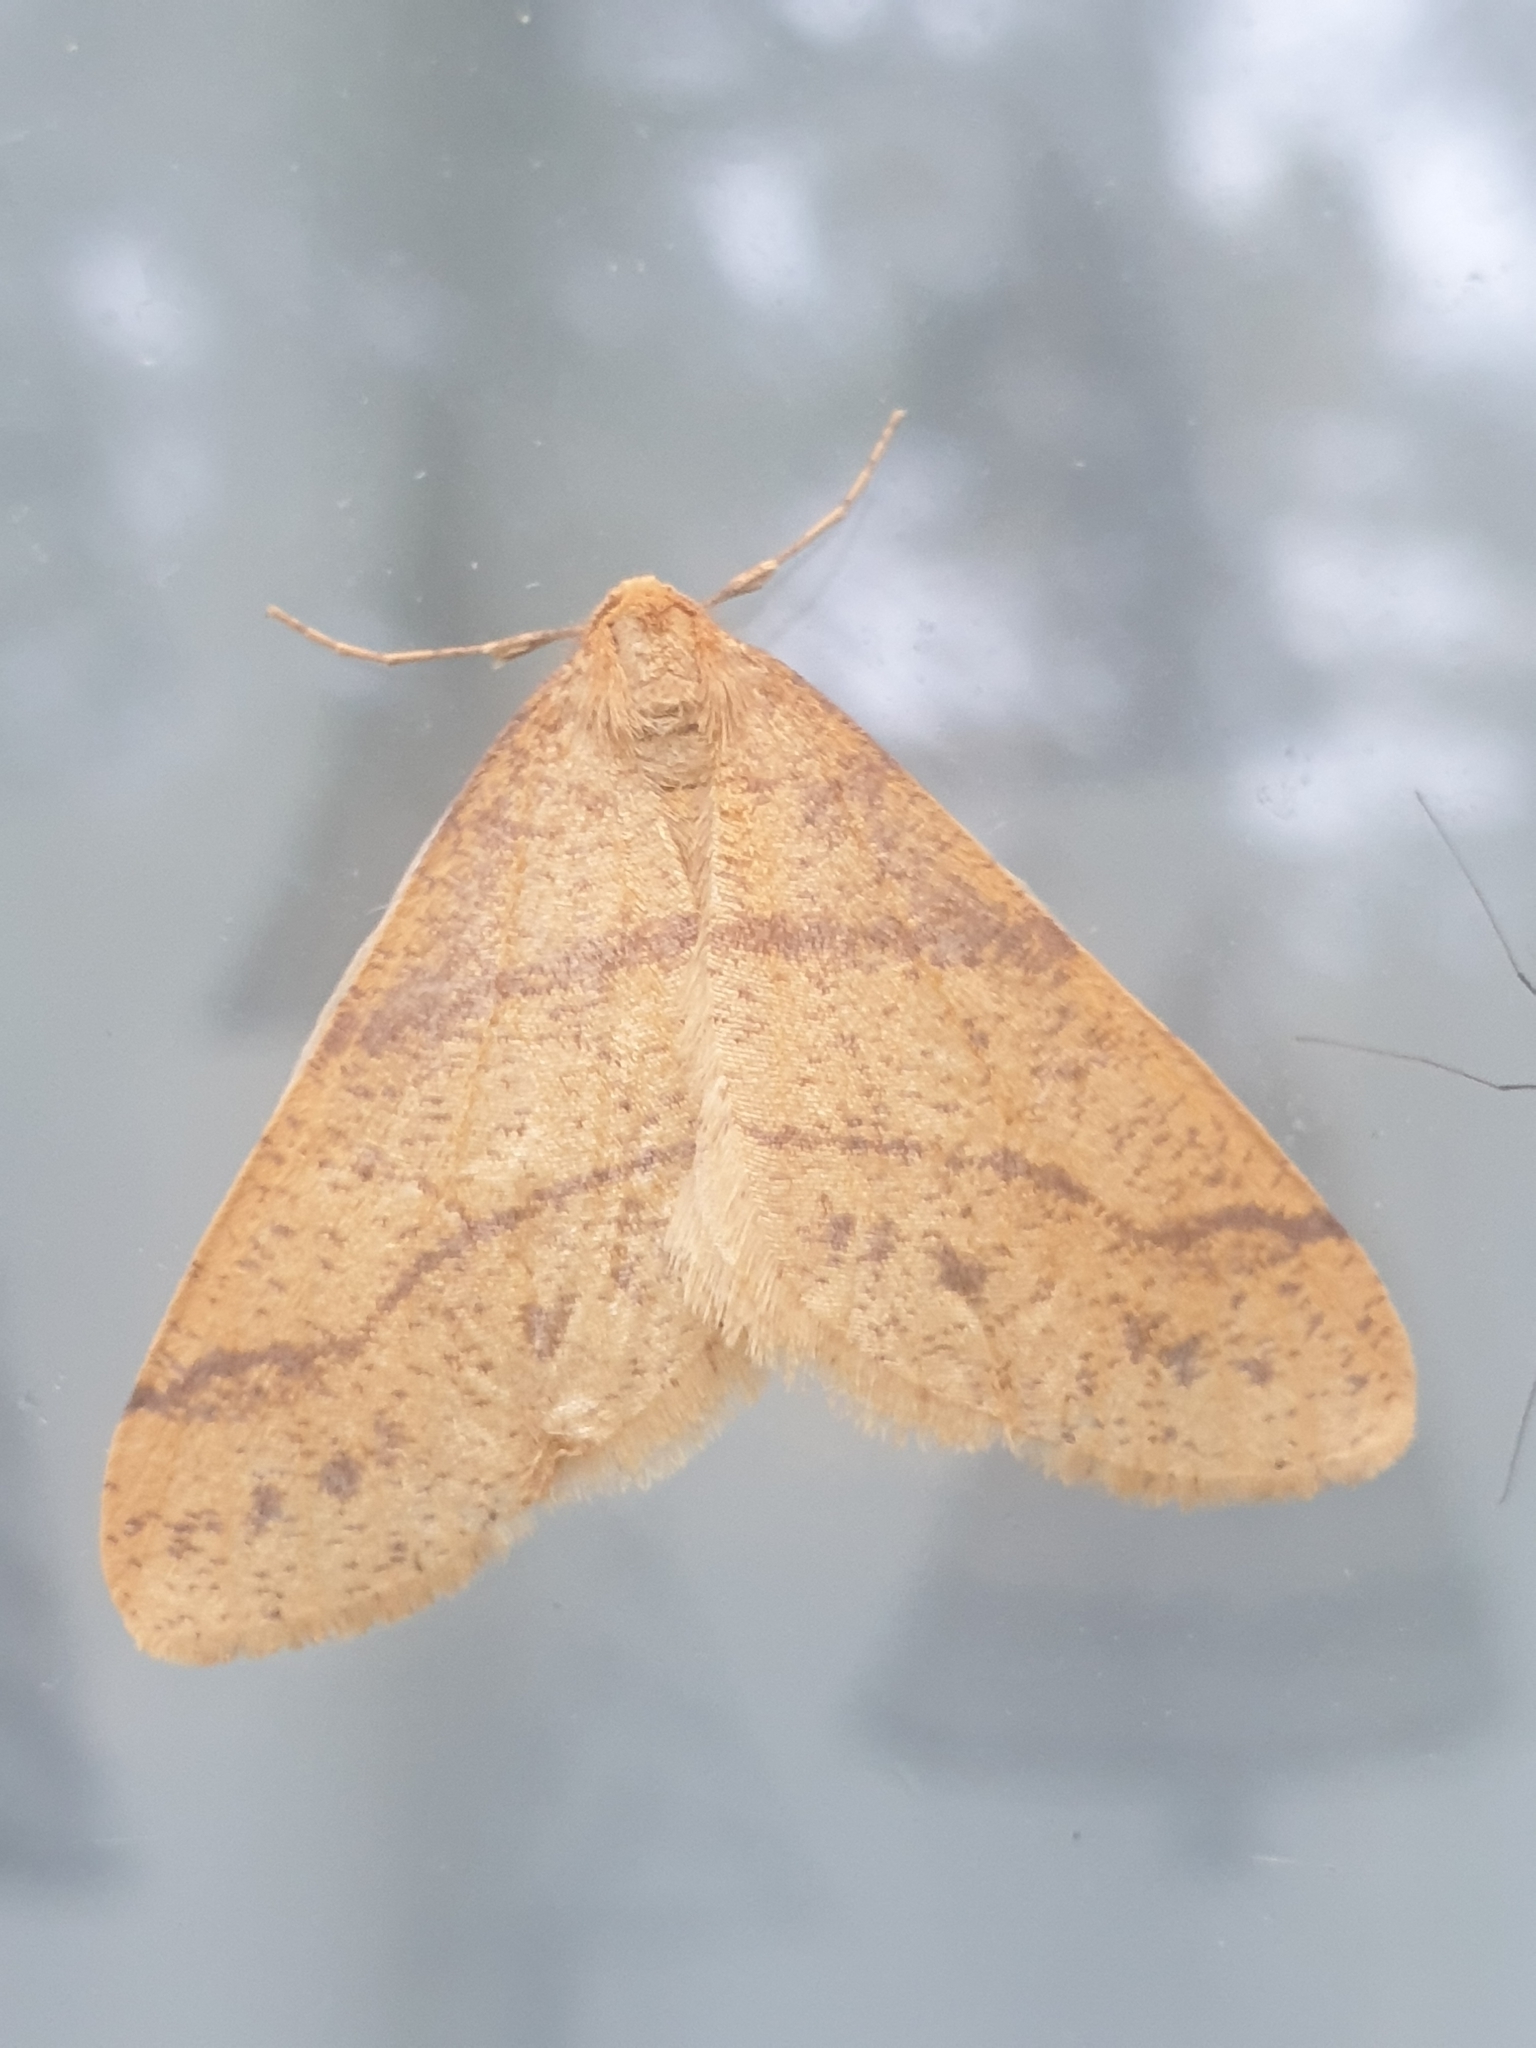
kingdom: Animalia
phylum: Arthropoda
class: Insecta
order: Lepidoptera
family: Geometridae
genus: Agriopis
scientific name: Agriopis aurantiaria
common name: Scarce umber
